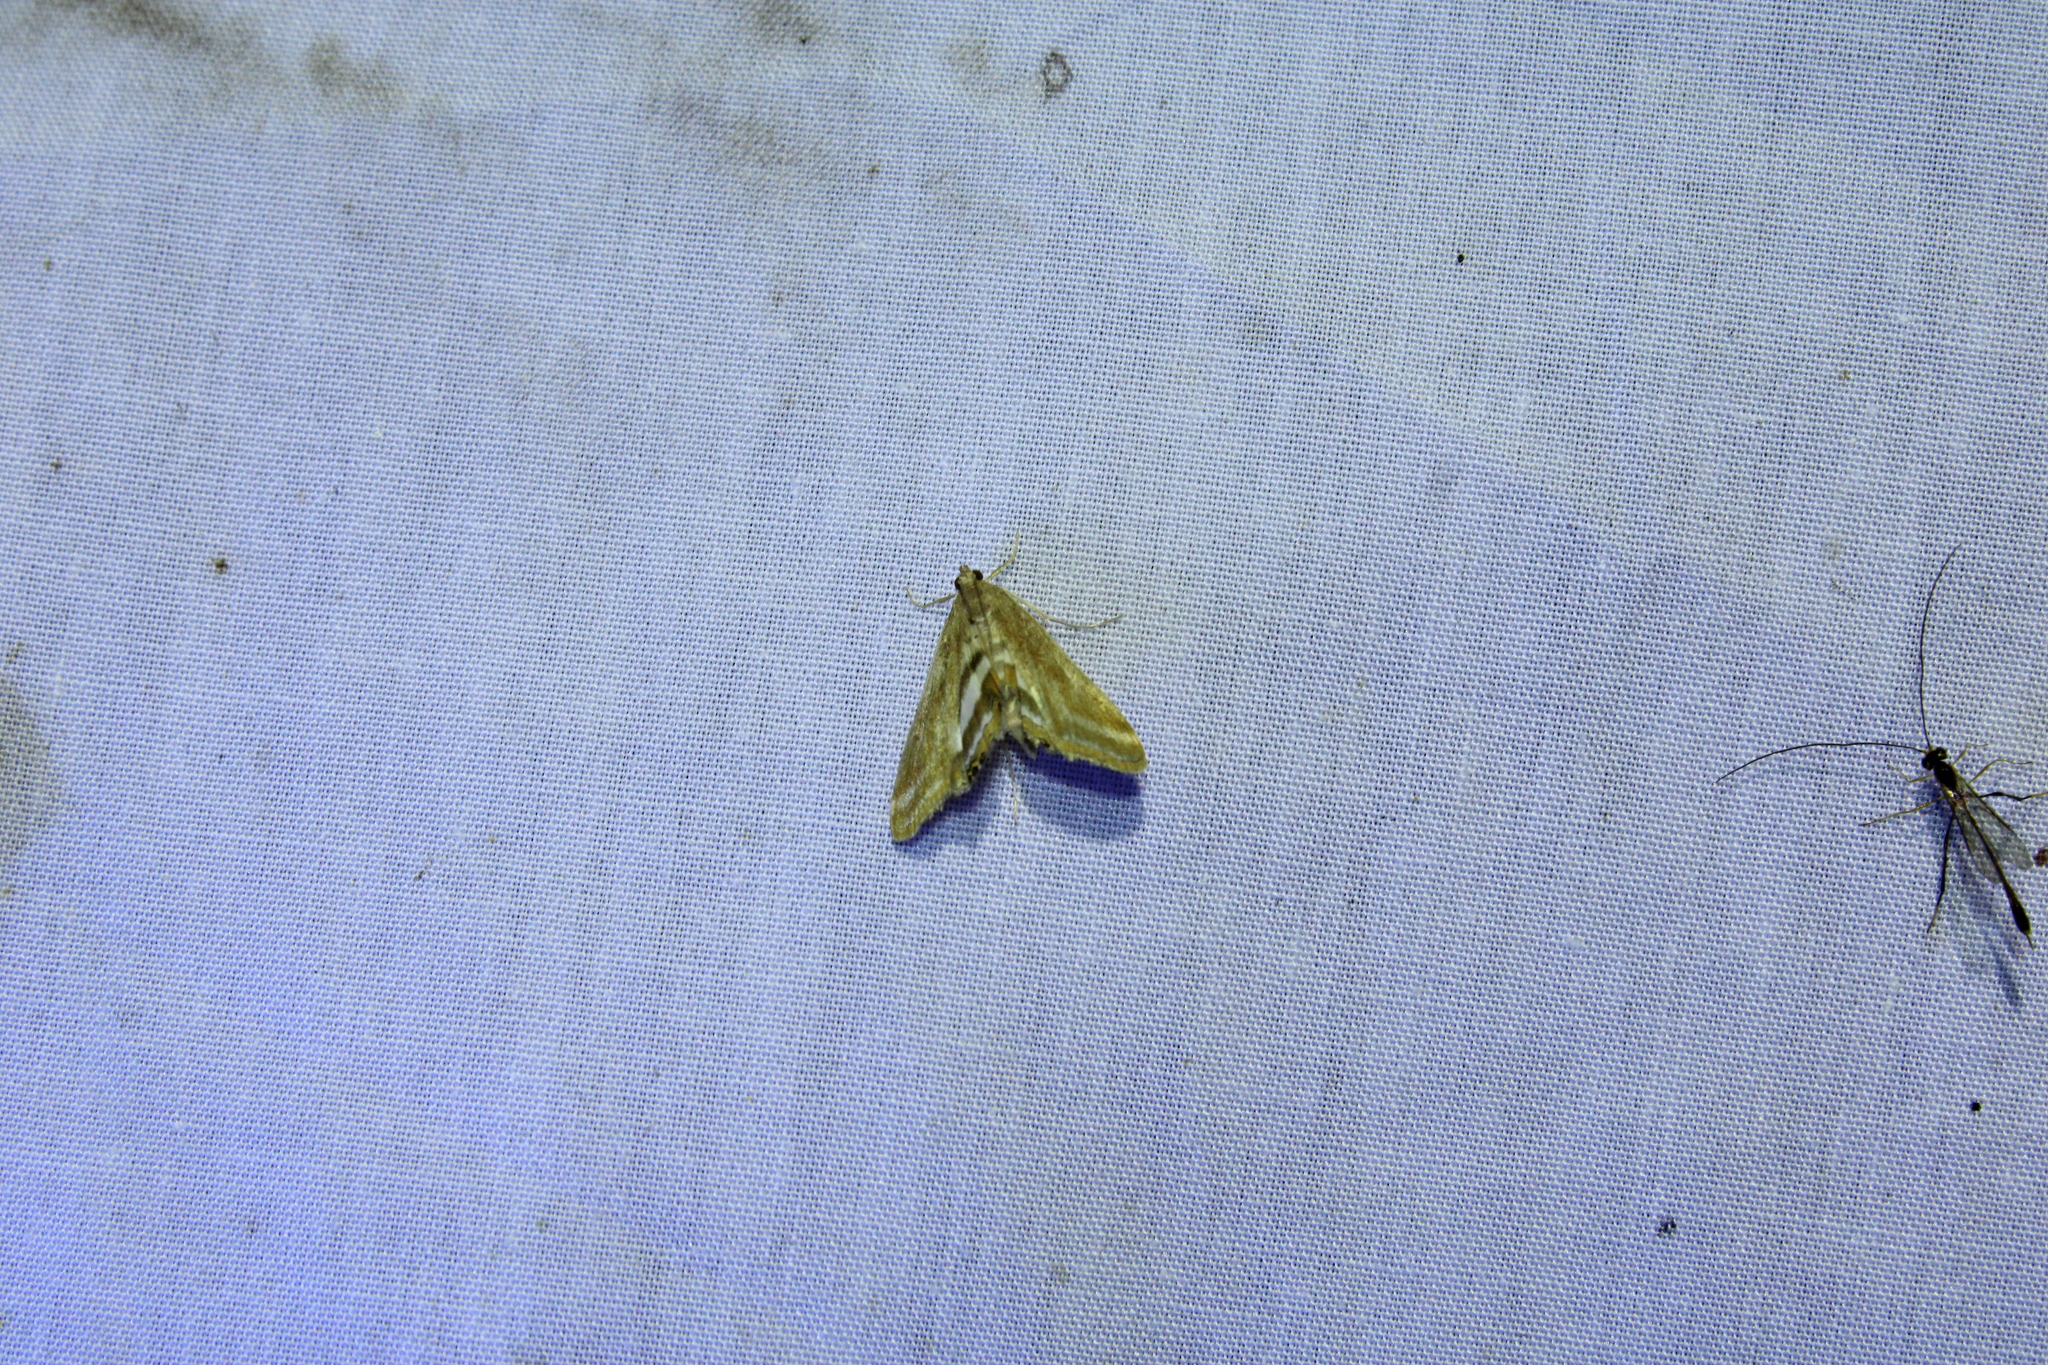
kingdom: Animalia
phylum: Arthropoda
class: Insecta
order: Lepidoptera
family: Crambidae
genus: Parapoynx
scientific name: Parapoynx seminealis
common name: Floating-heart waterlily leafcutter
